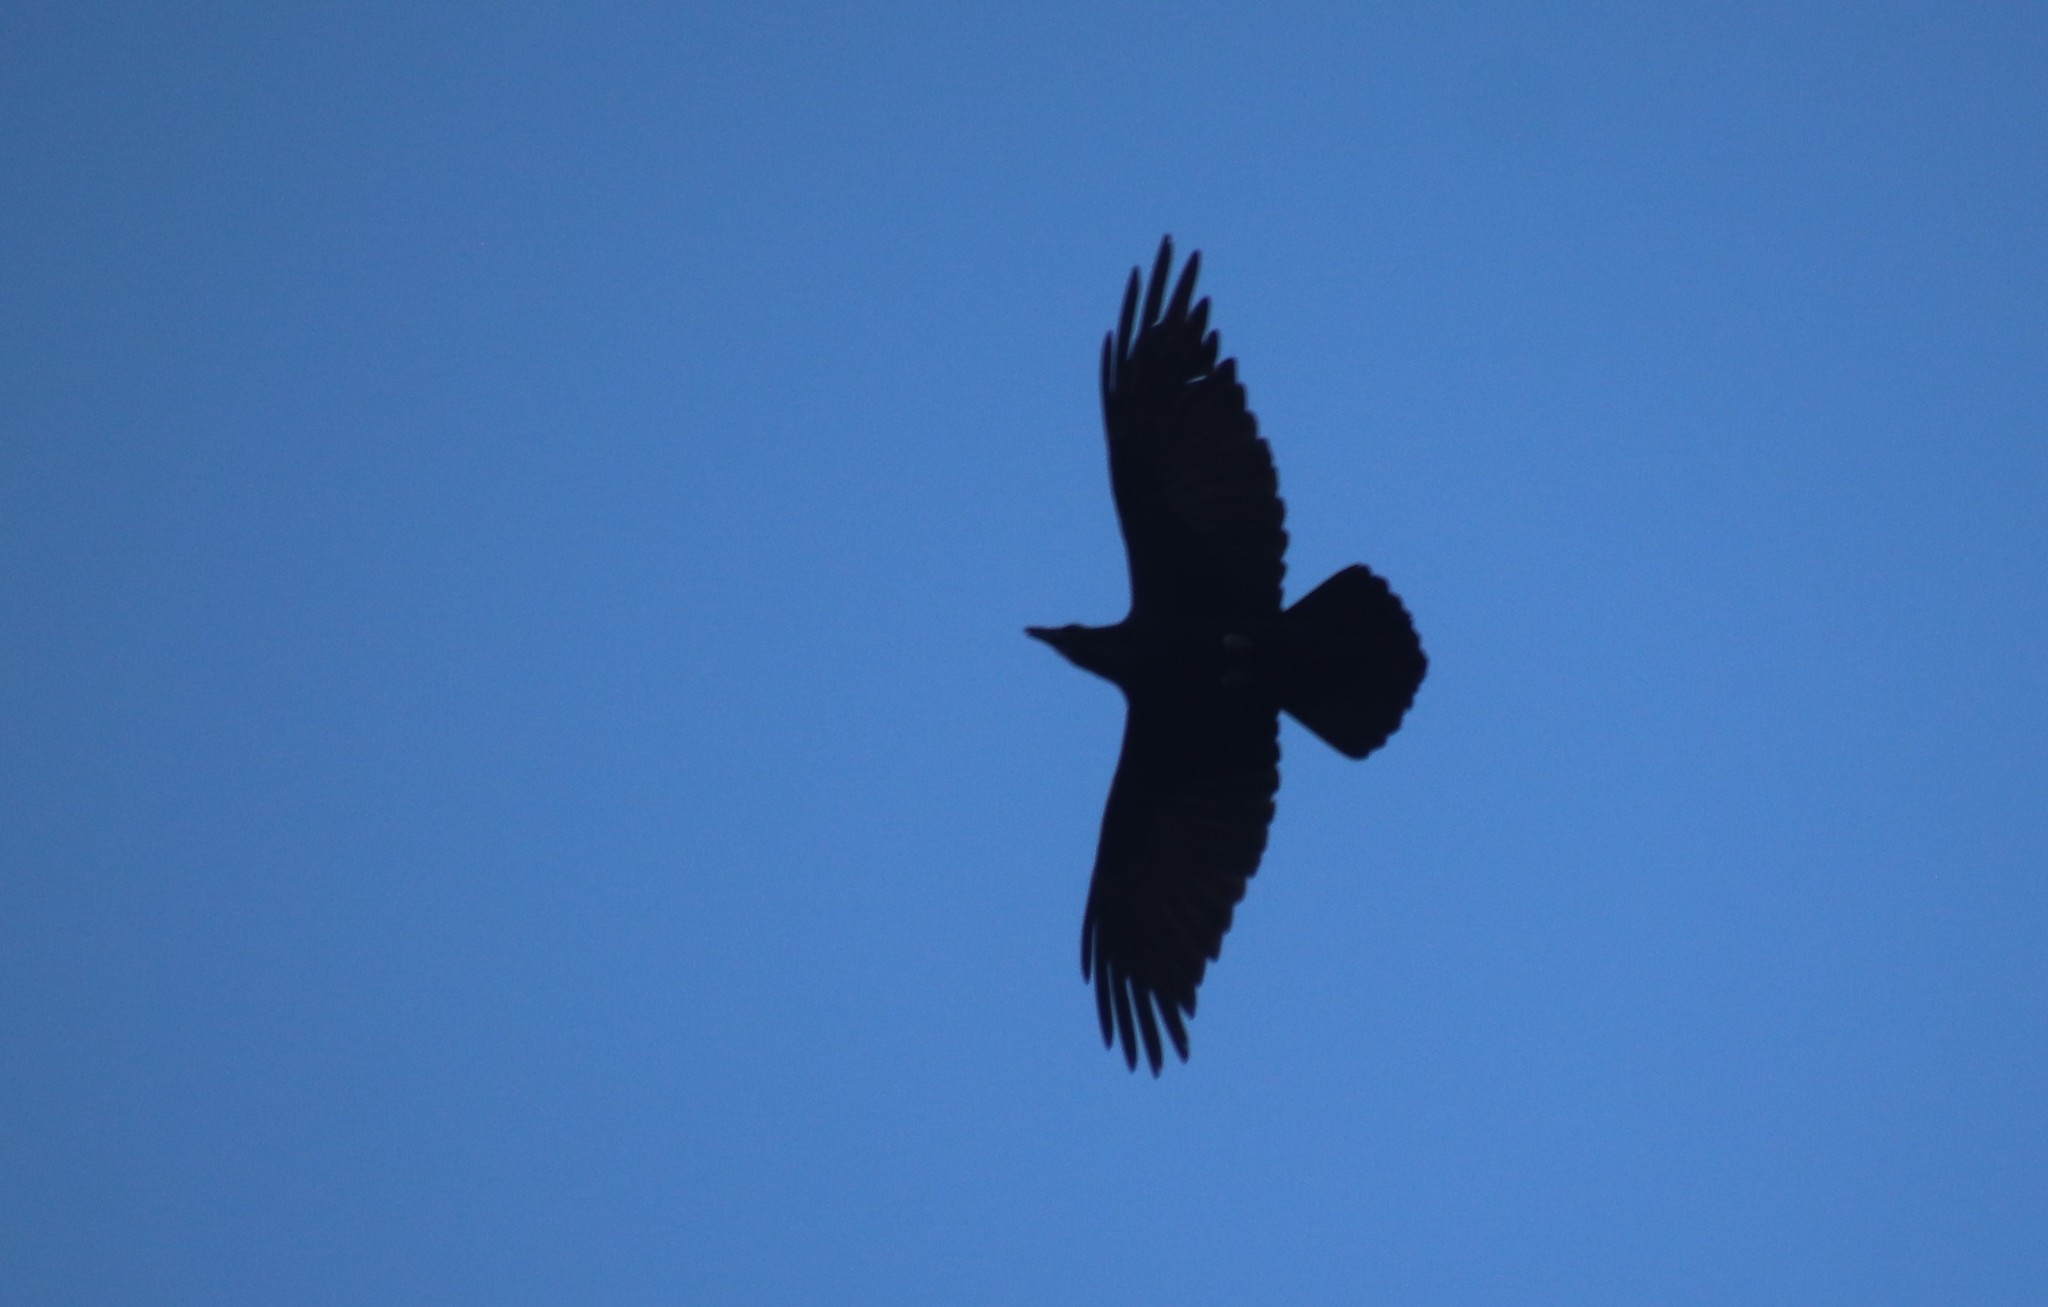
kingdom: Animalia
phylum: Chordata
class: Aves
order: Passeriformes
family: Corvidae
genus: Corvus
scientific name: Corvus corax
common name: Common raven
